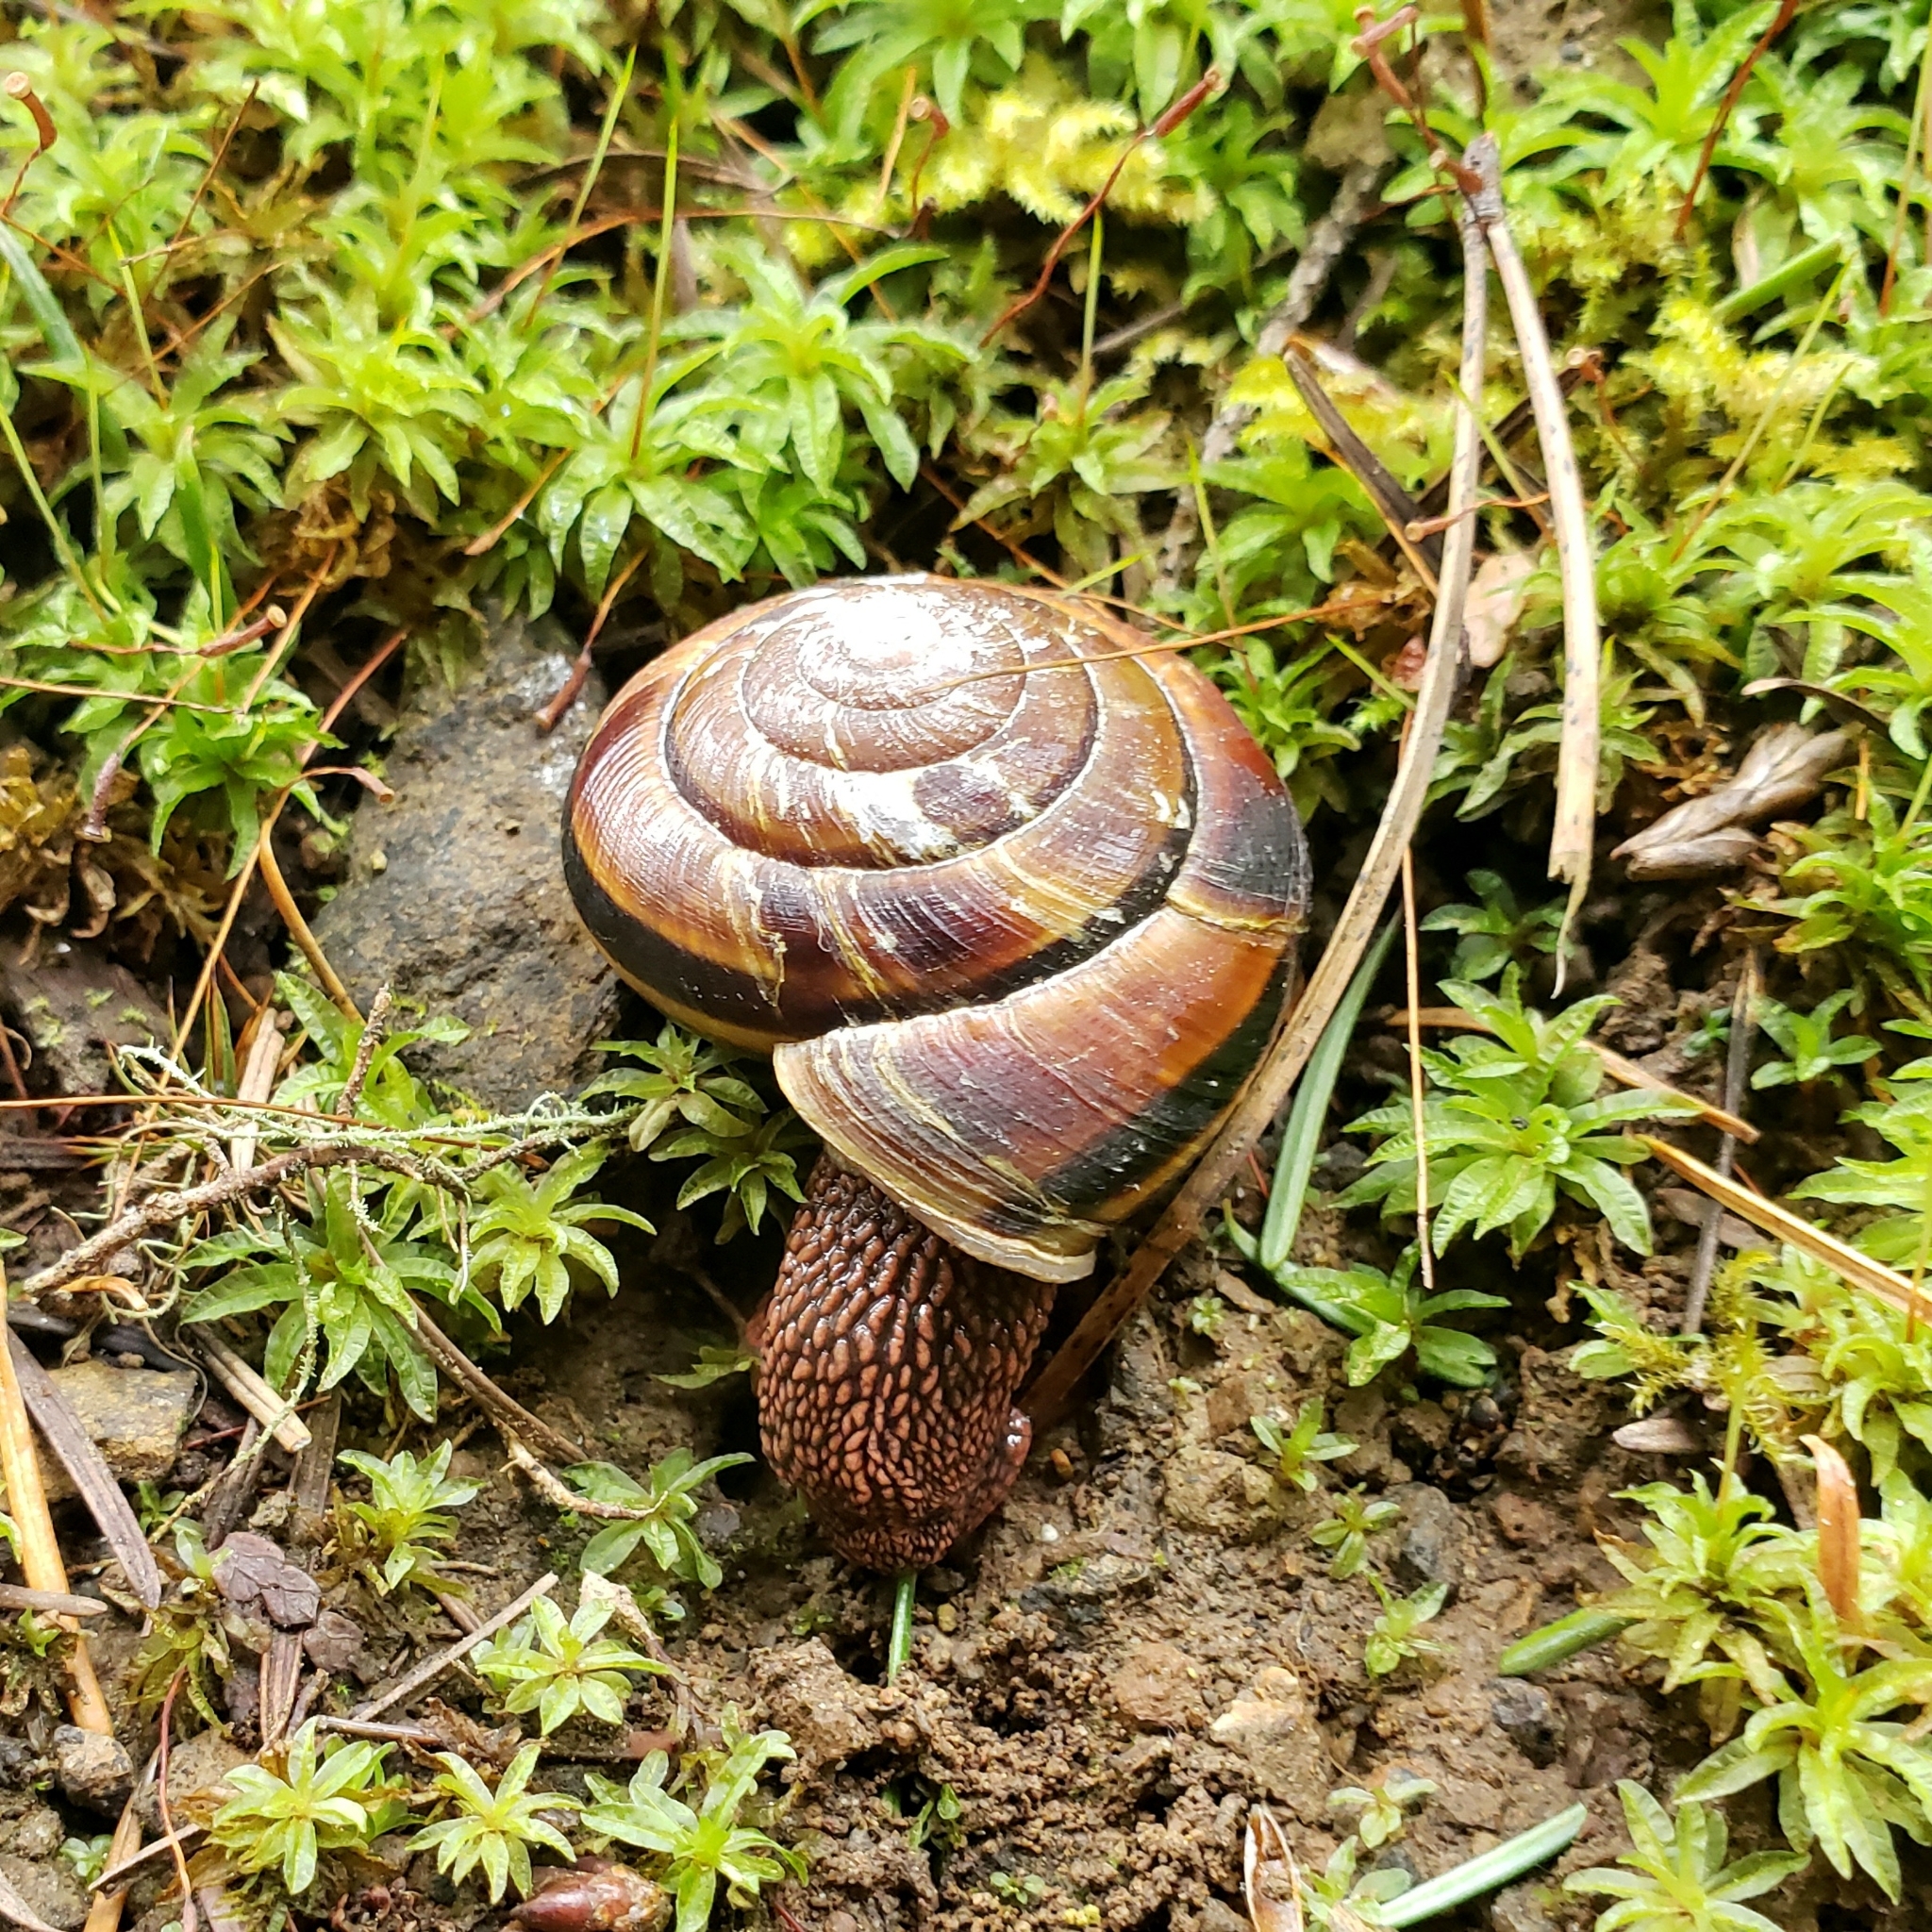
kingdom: Animalia
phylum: Mollusca
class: Gastropoda
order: Stylommatophora
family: Xanthonychidae
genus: Monadenia
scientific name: Monadenia fidelis
